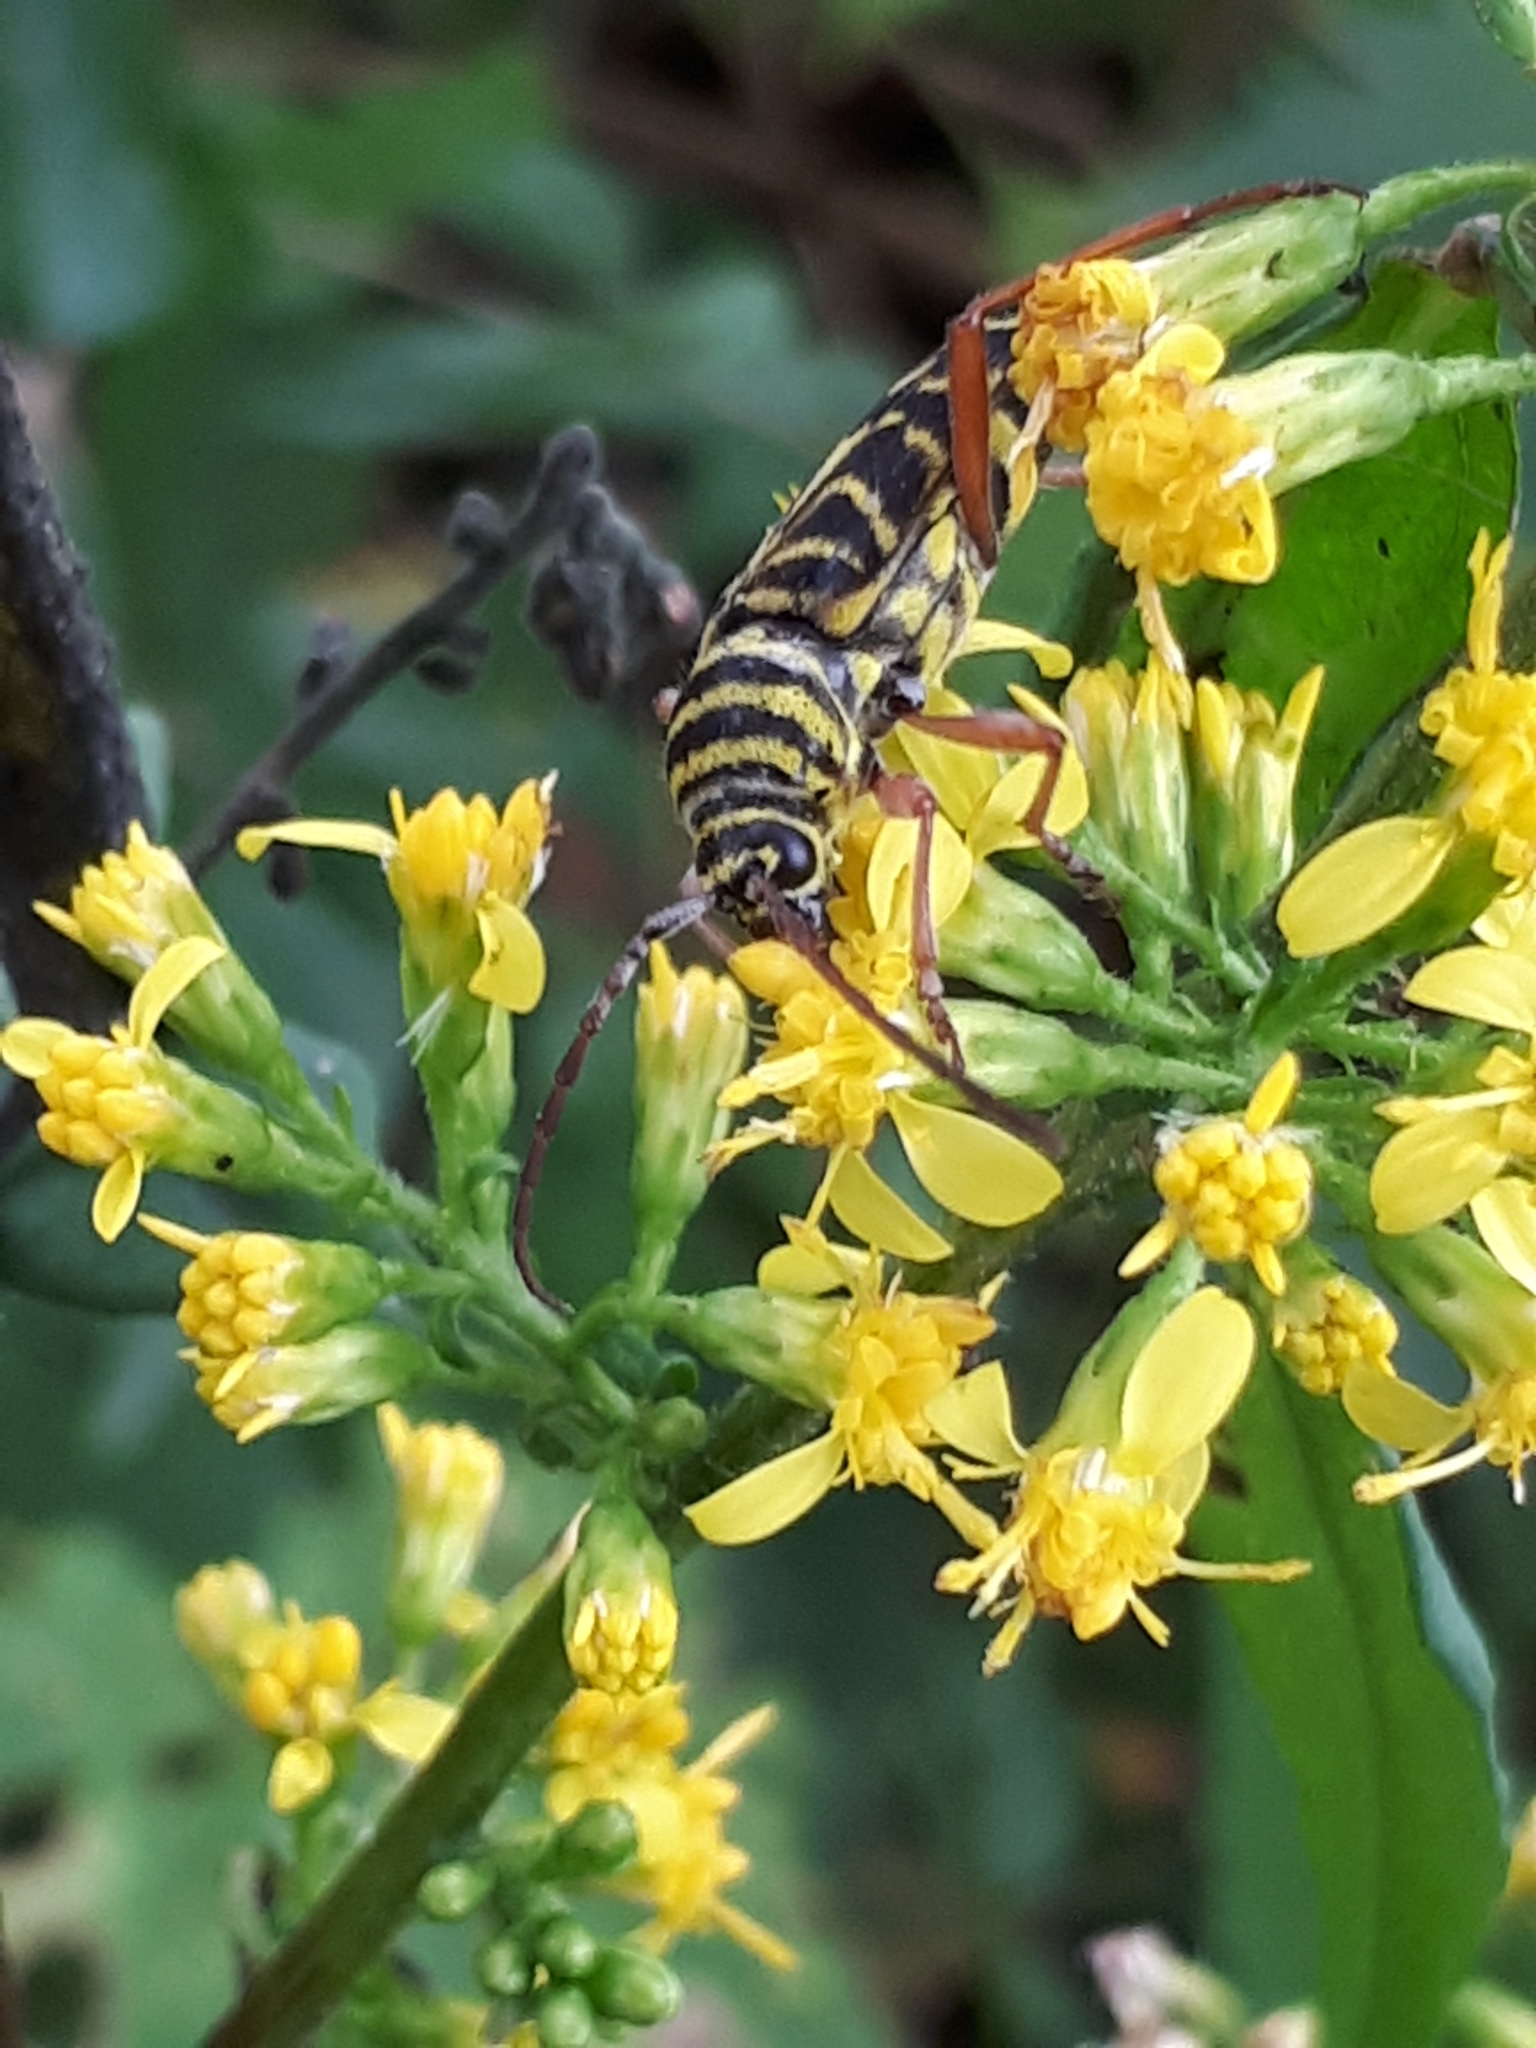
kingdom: Animalia
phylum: Arthropoda
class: Insecta
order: Coleoptera
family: Cerambycidae
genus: Megacyllene
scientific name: Megacyllene robiniae
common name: Locust borer
